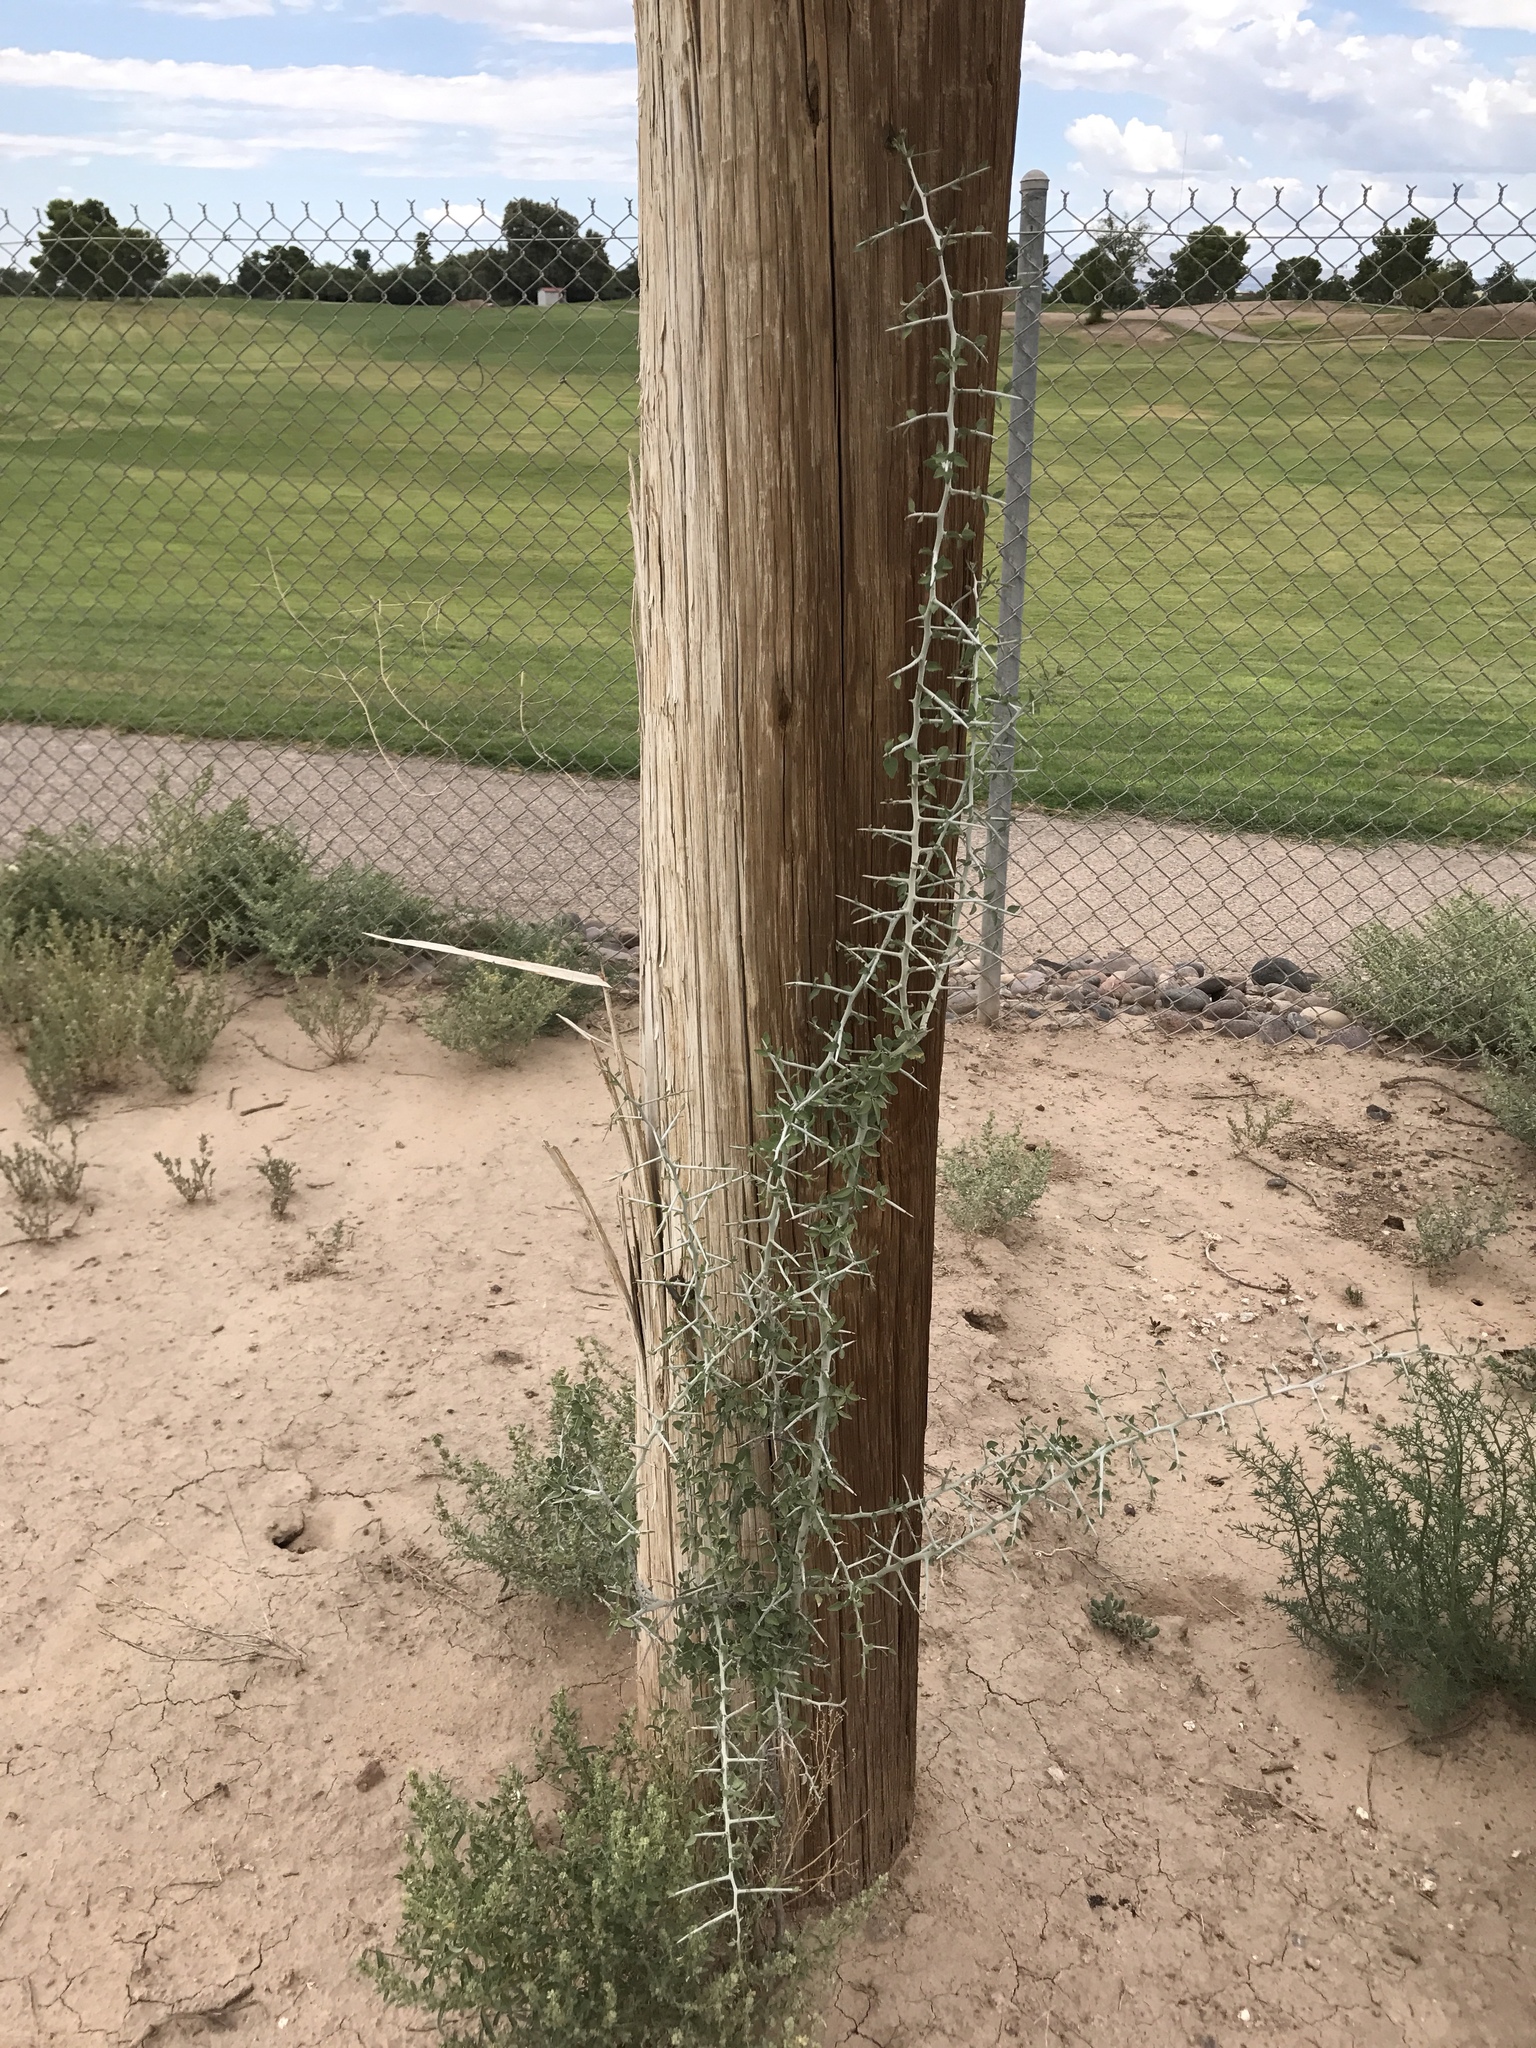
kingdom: Plantae
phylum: Tracheophyta
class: Magnoliopsida
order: Rosales
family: Rhamnaceae
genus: Sarcomphalus
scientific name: Sarcomphalus obtusifolius
